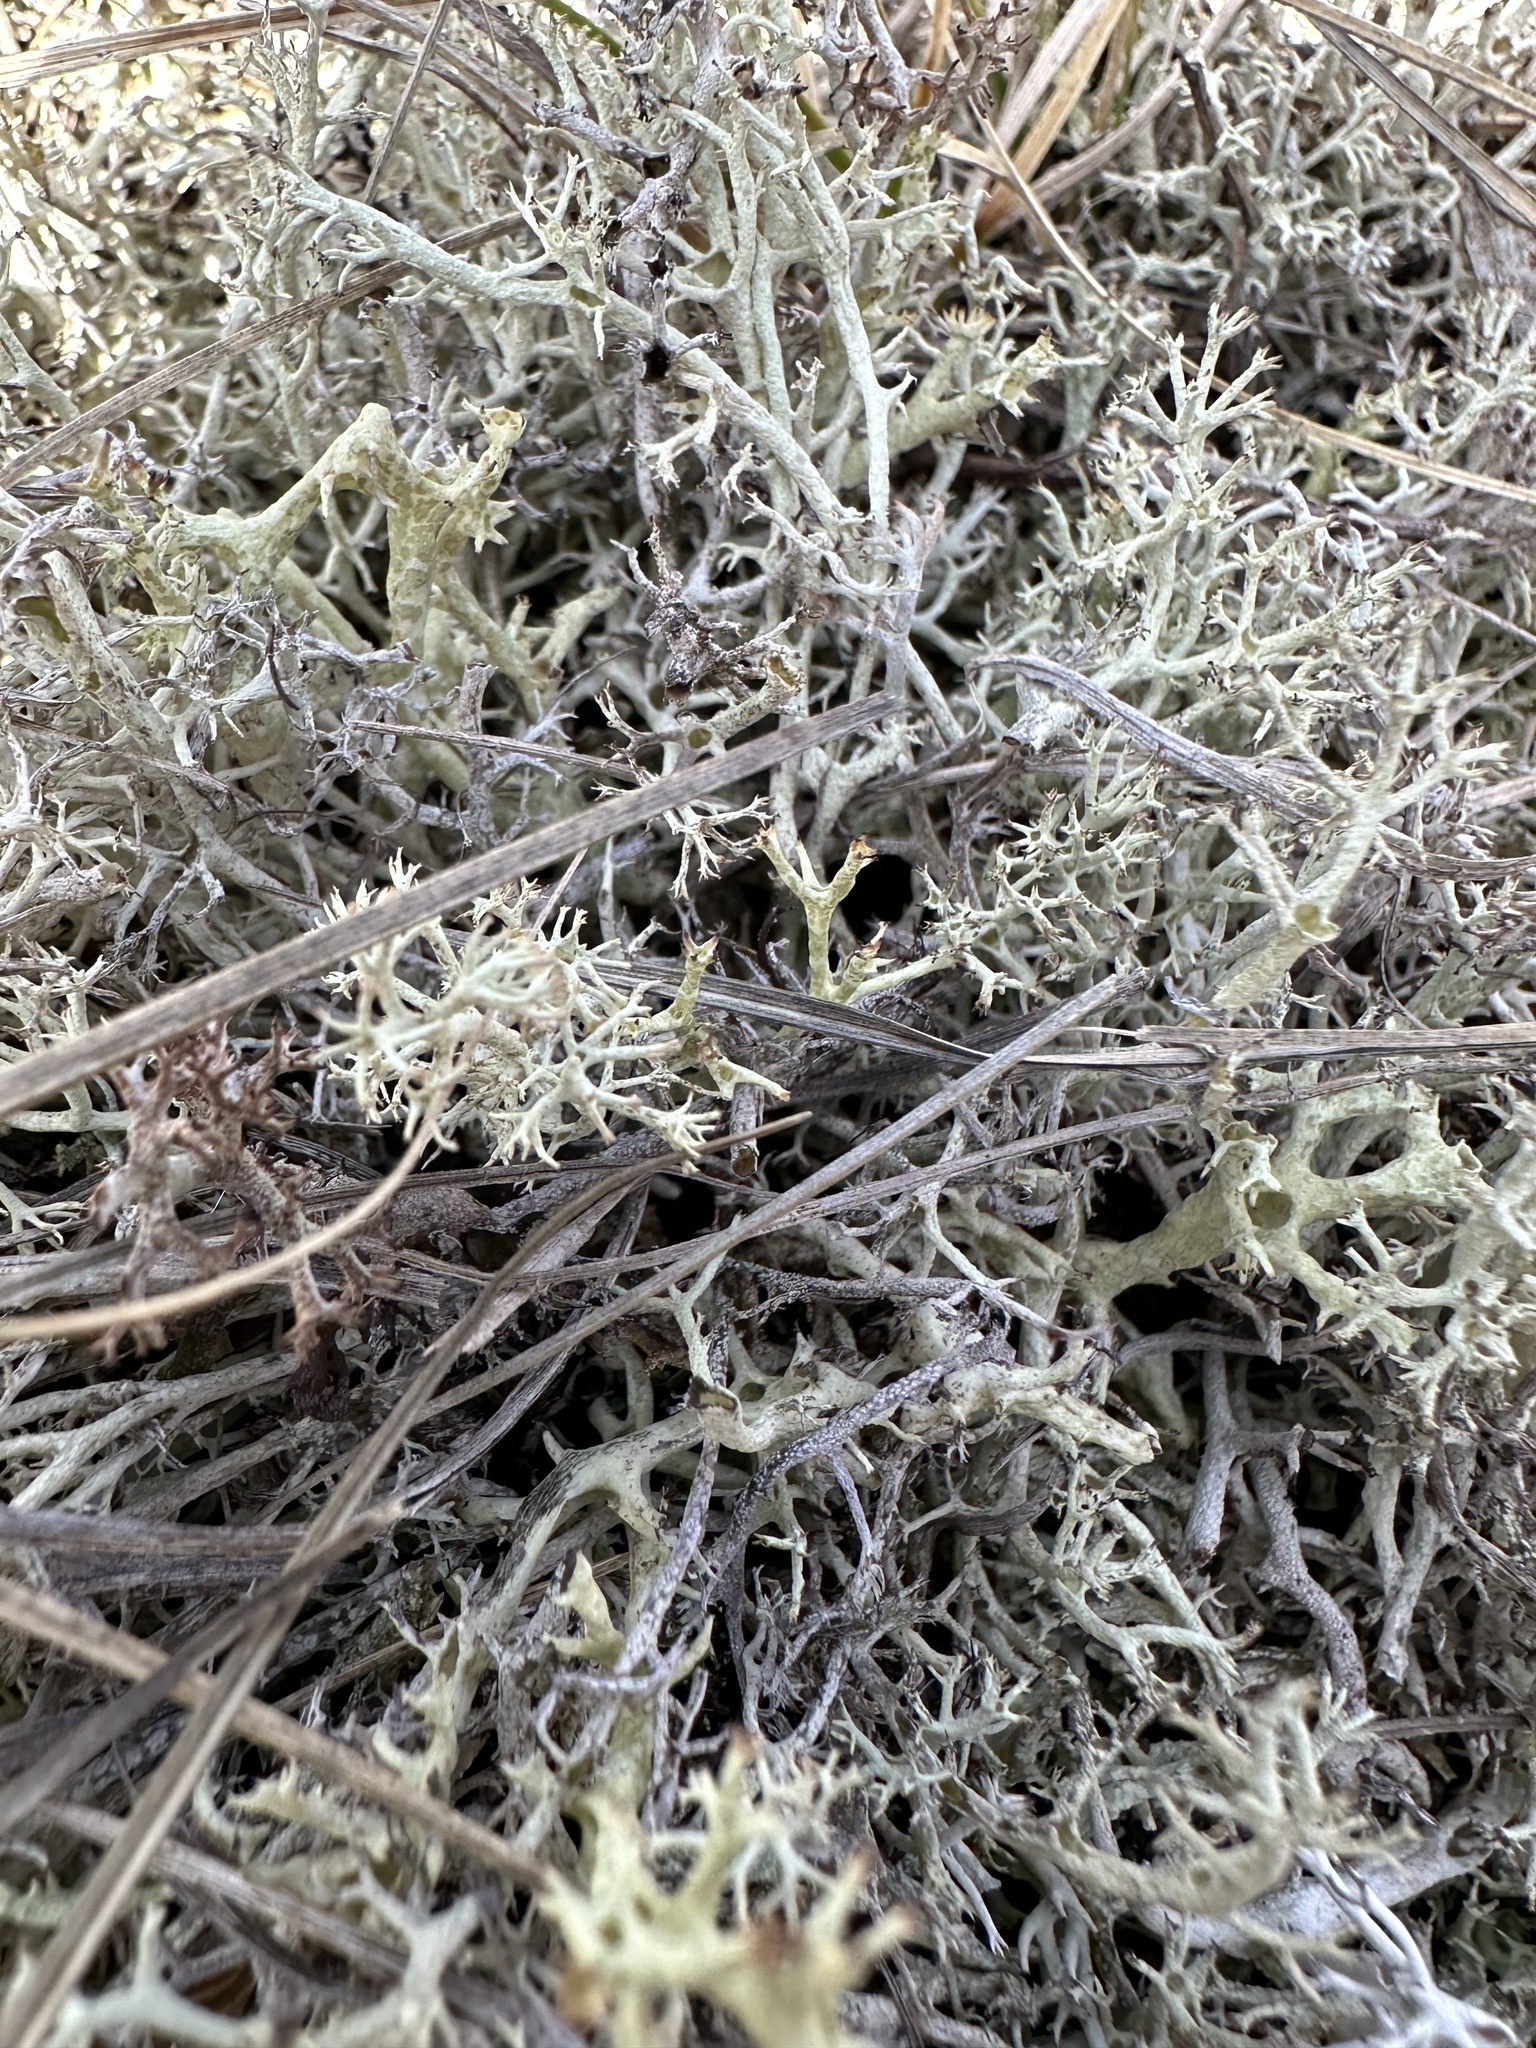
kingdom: Fungi
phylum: Ascomycota
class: Lecanoromycetes
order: Lecanorales
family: Cladoniaceae
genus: Cladonia
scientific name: Cladonia rangiferina
